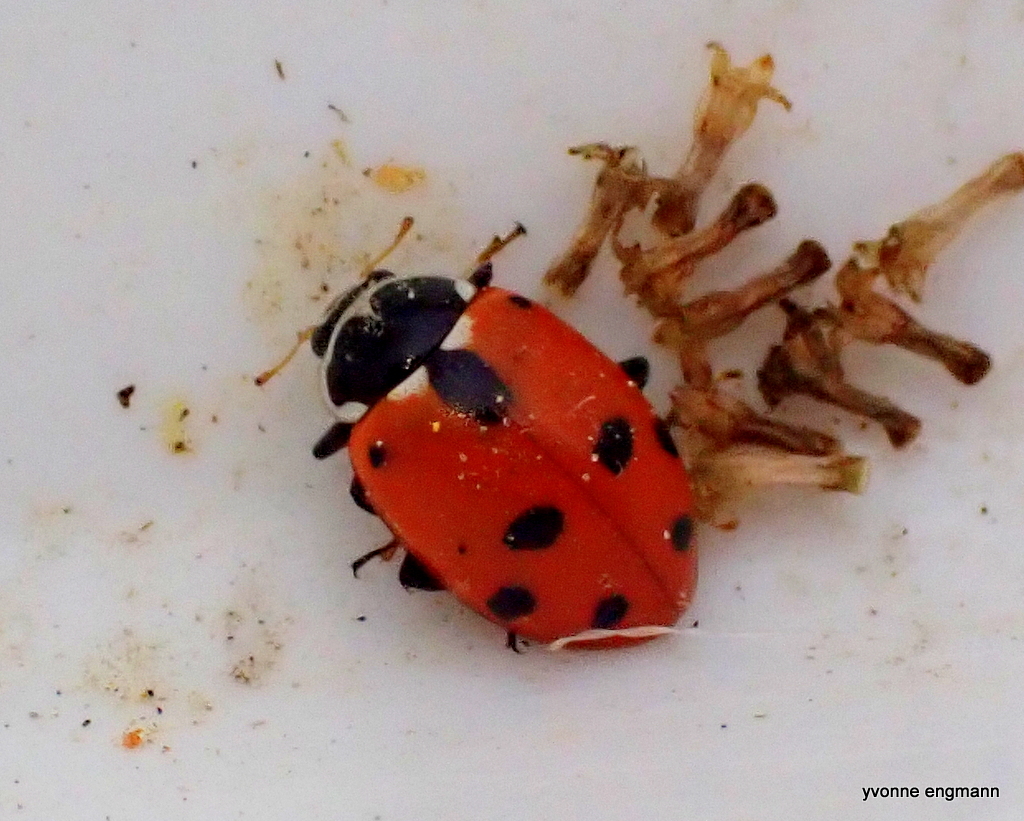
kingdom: Animalia
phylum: Arthropoda
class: Insecta
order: Coleoptera
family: Coccinellidae
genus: Hippodamia
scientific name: Hippodamia variegata
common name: Ladybird beetle
